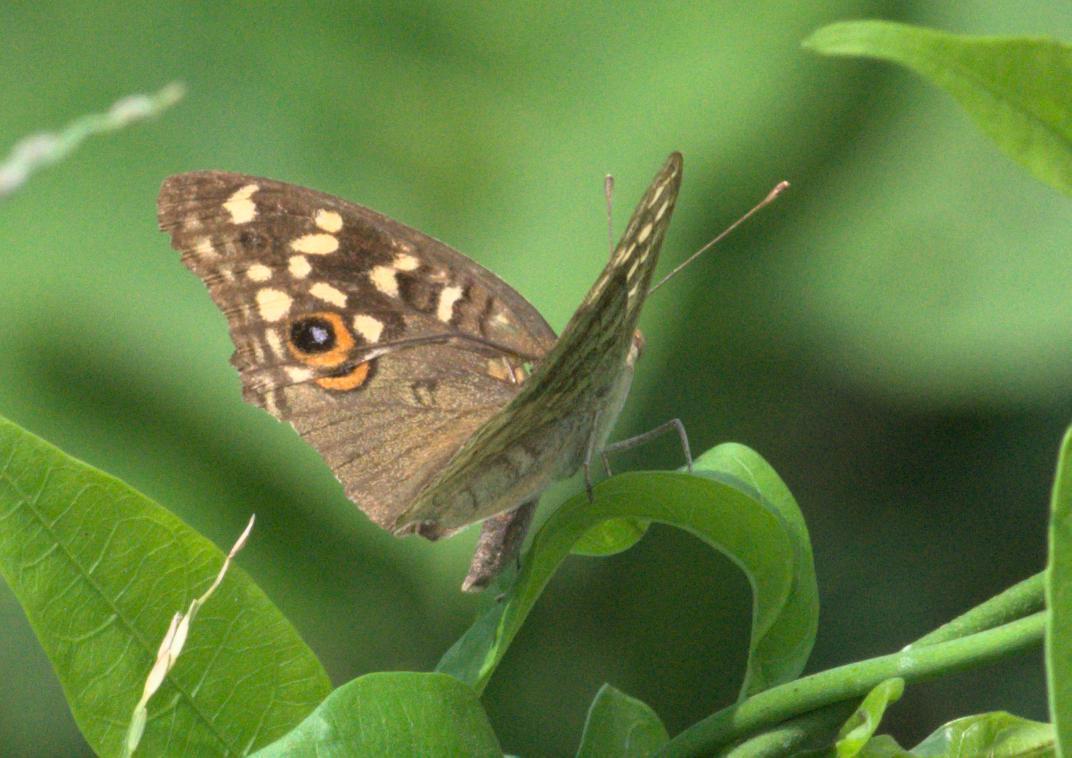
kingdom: Animalia
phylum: Arthropoda
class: Insecta
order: Lepidoptera
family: Nymphalidae
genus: Junonia
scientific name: Junonia lemonias
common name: Lemon pansy
